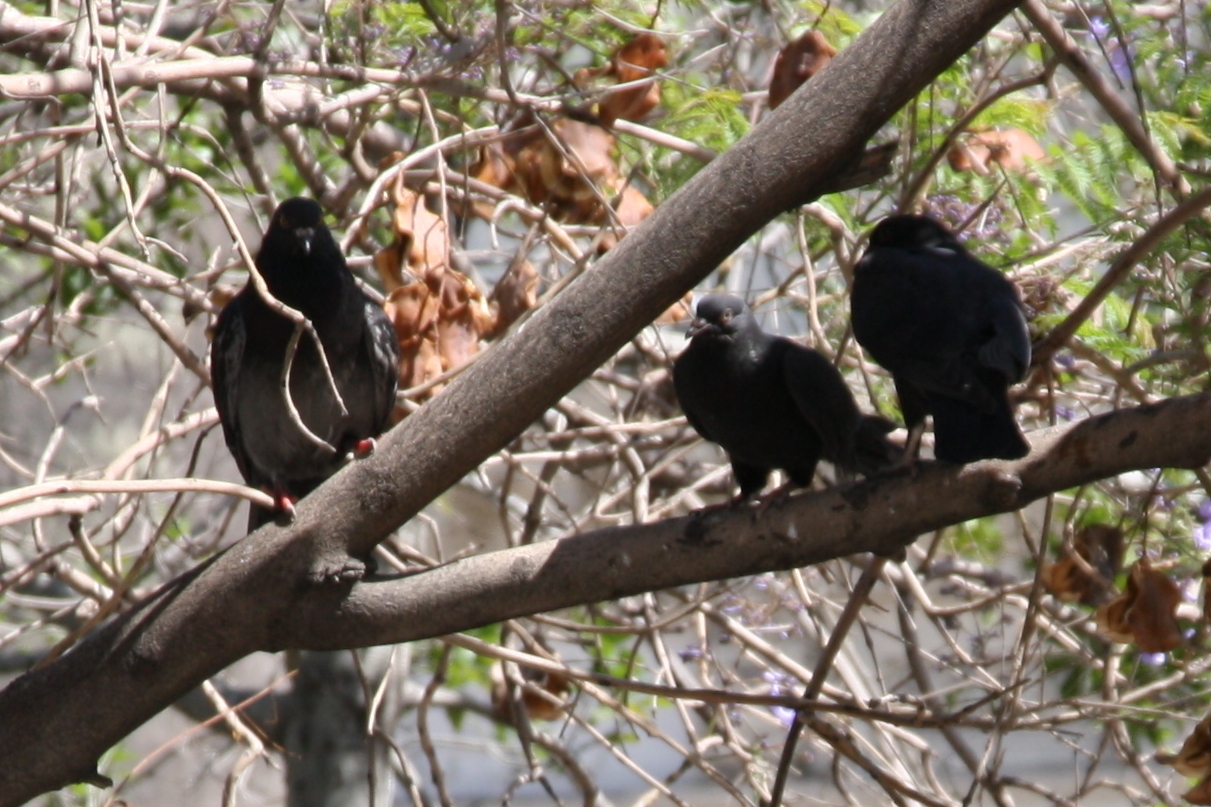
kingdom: Animalia
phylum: Chordata
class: Aves
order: Columbiformes
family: Columbidae
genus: Columba
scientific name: Columba livia
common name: Rock pigeon
